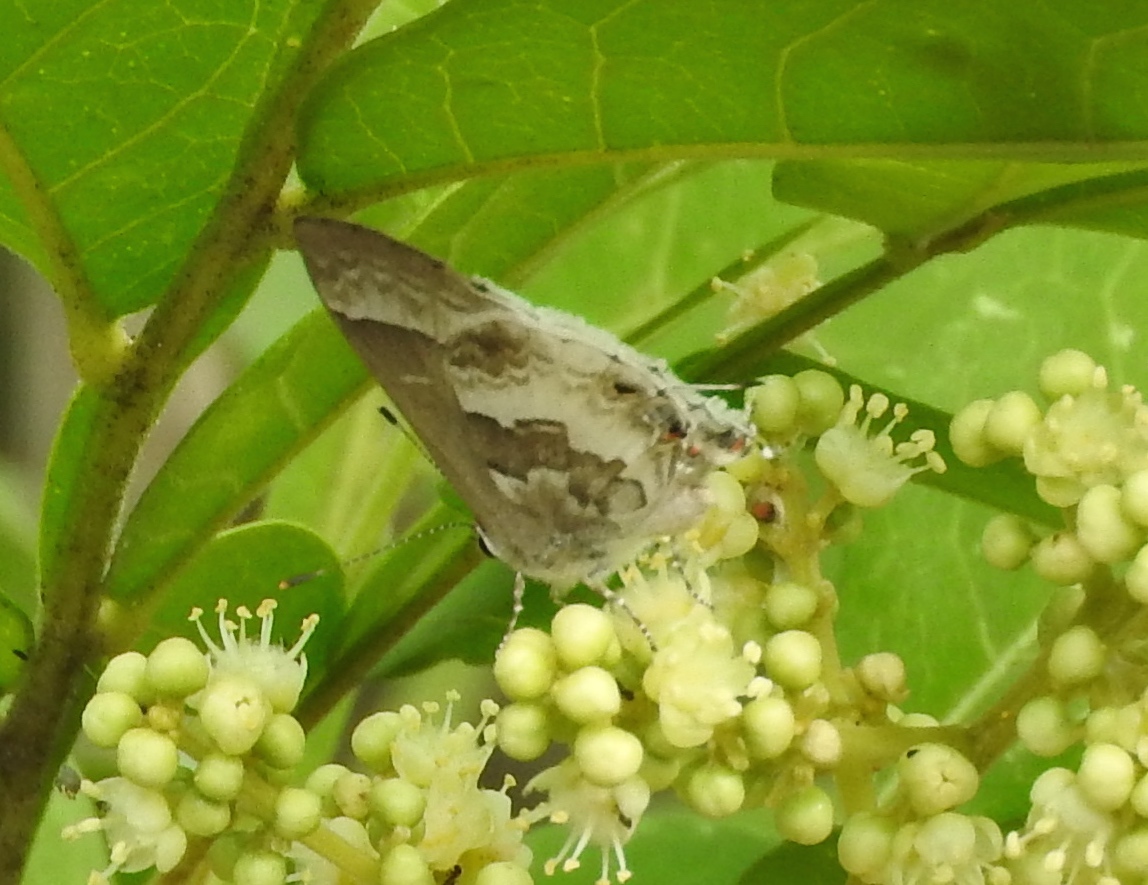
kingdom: Animalia
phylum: Arthropoda
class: Insecta
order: Lepidoptera
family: Lycaenidae
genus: Strymon
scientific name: Strymon albata
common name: White scrub-hairstreak
